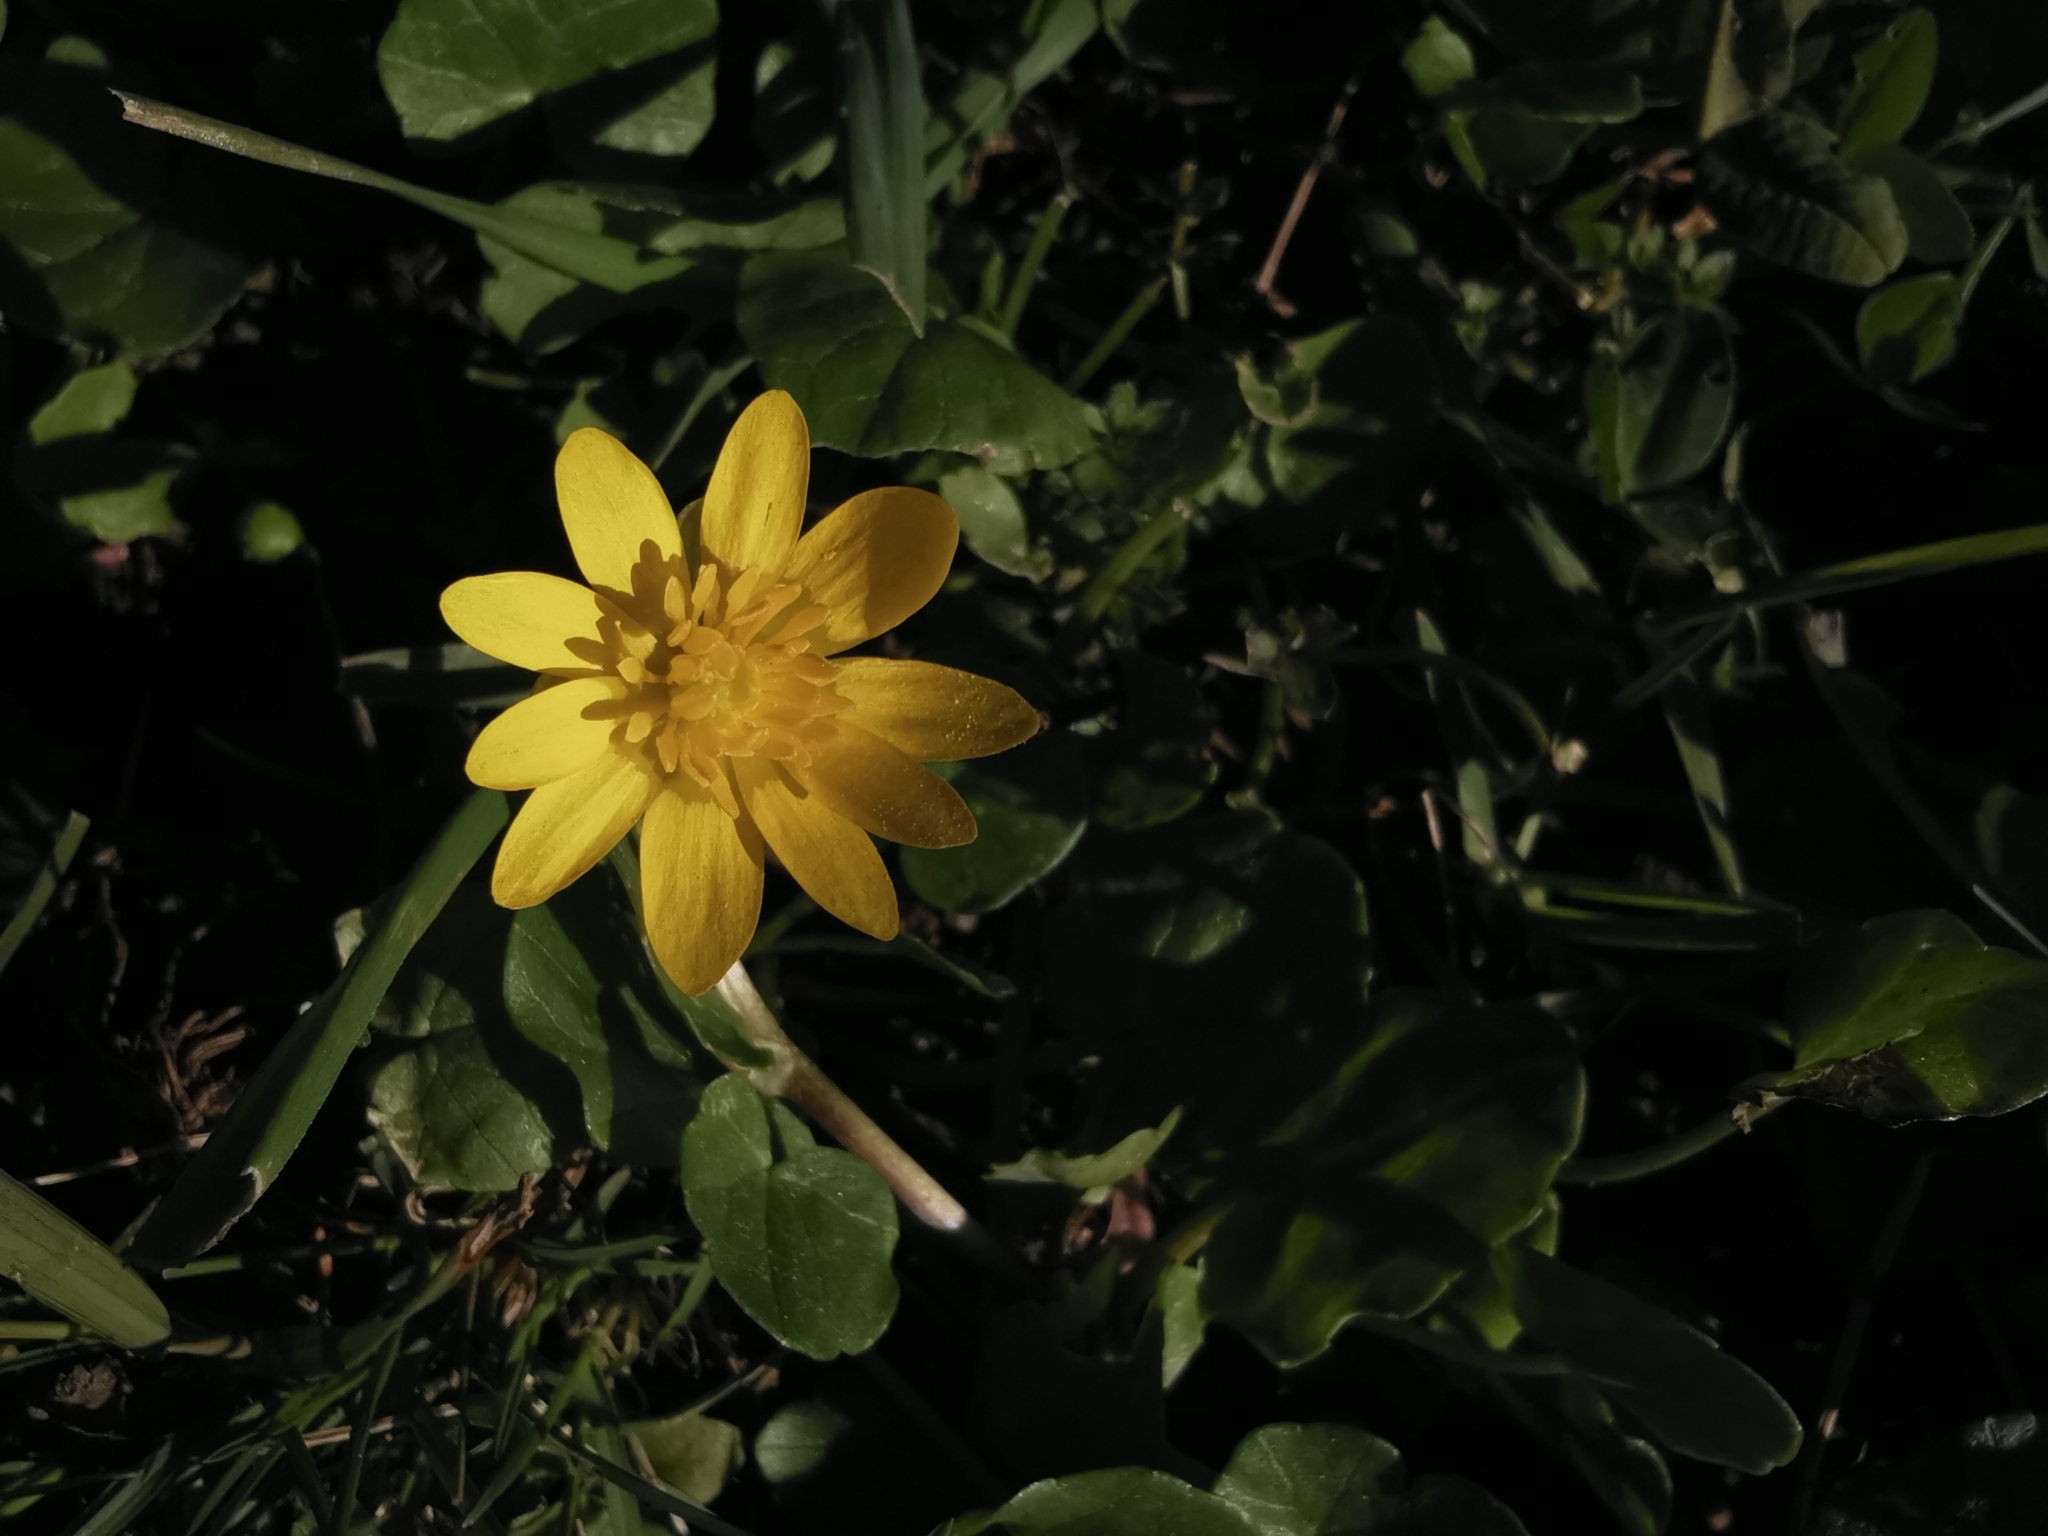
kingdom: Plantae
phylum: Tracheophyta
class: Magnoliopsida
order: Ranunculales
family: Ranunculaceae
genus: Ficaria
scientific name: Ficaria verna
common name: Lesser celandine
